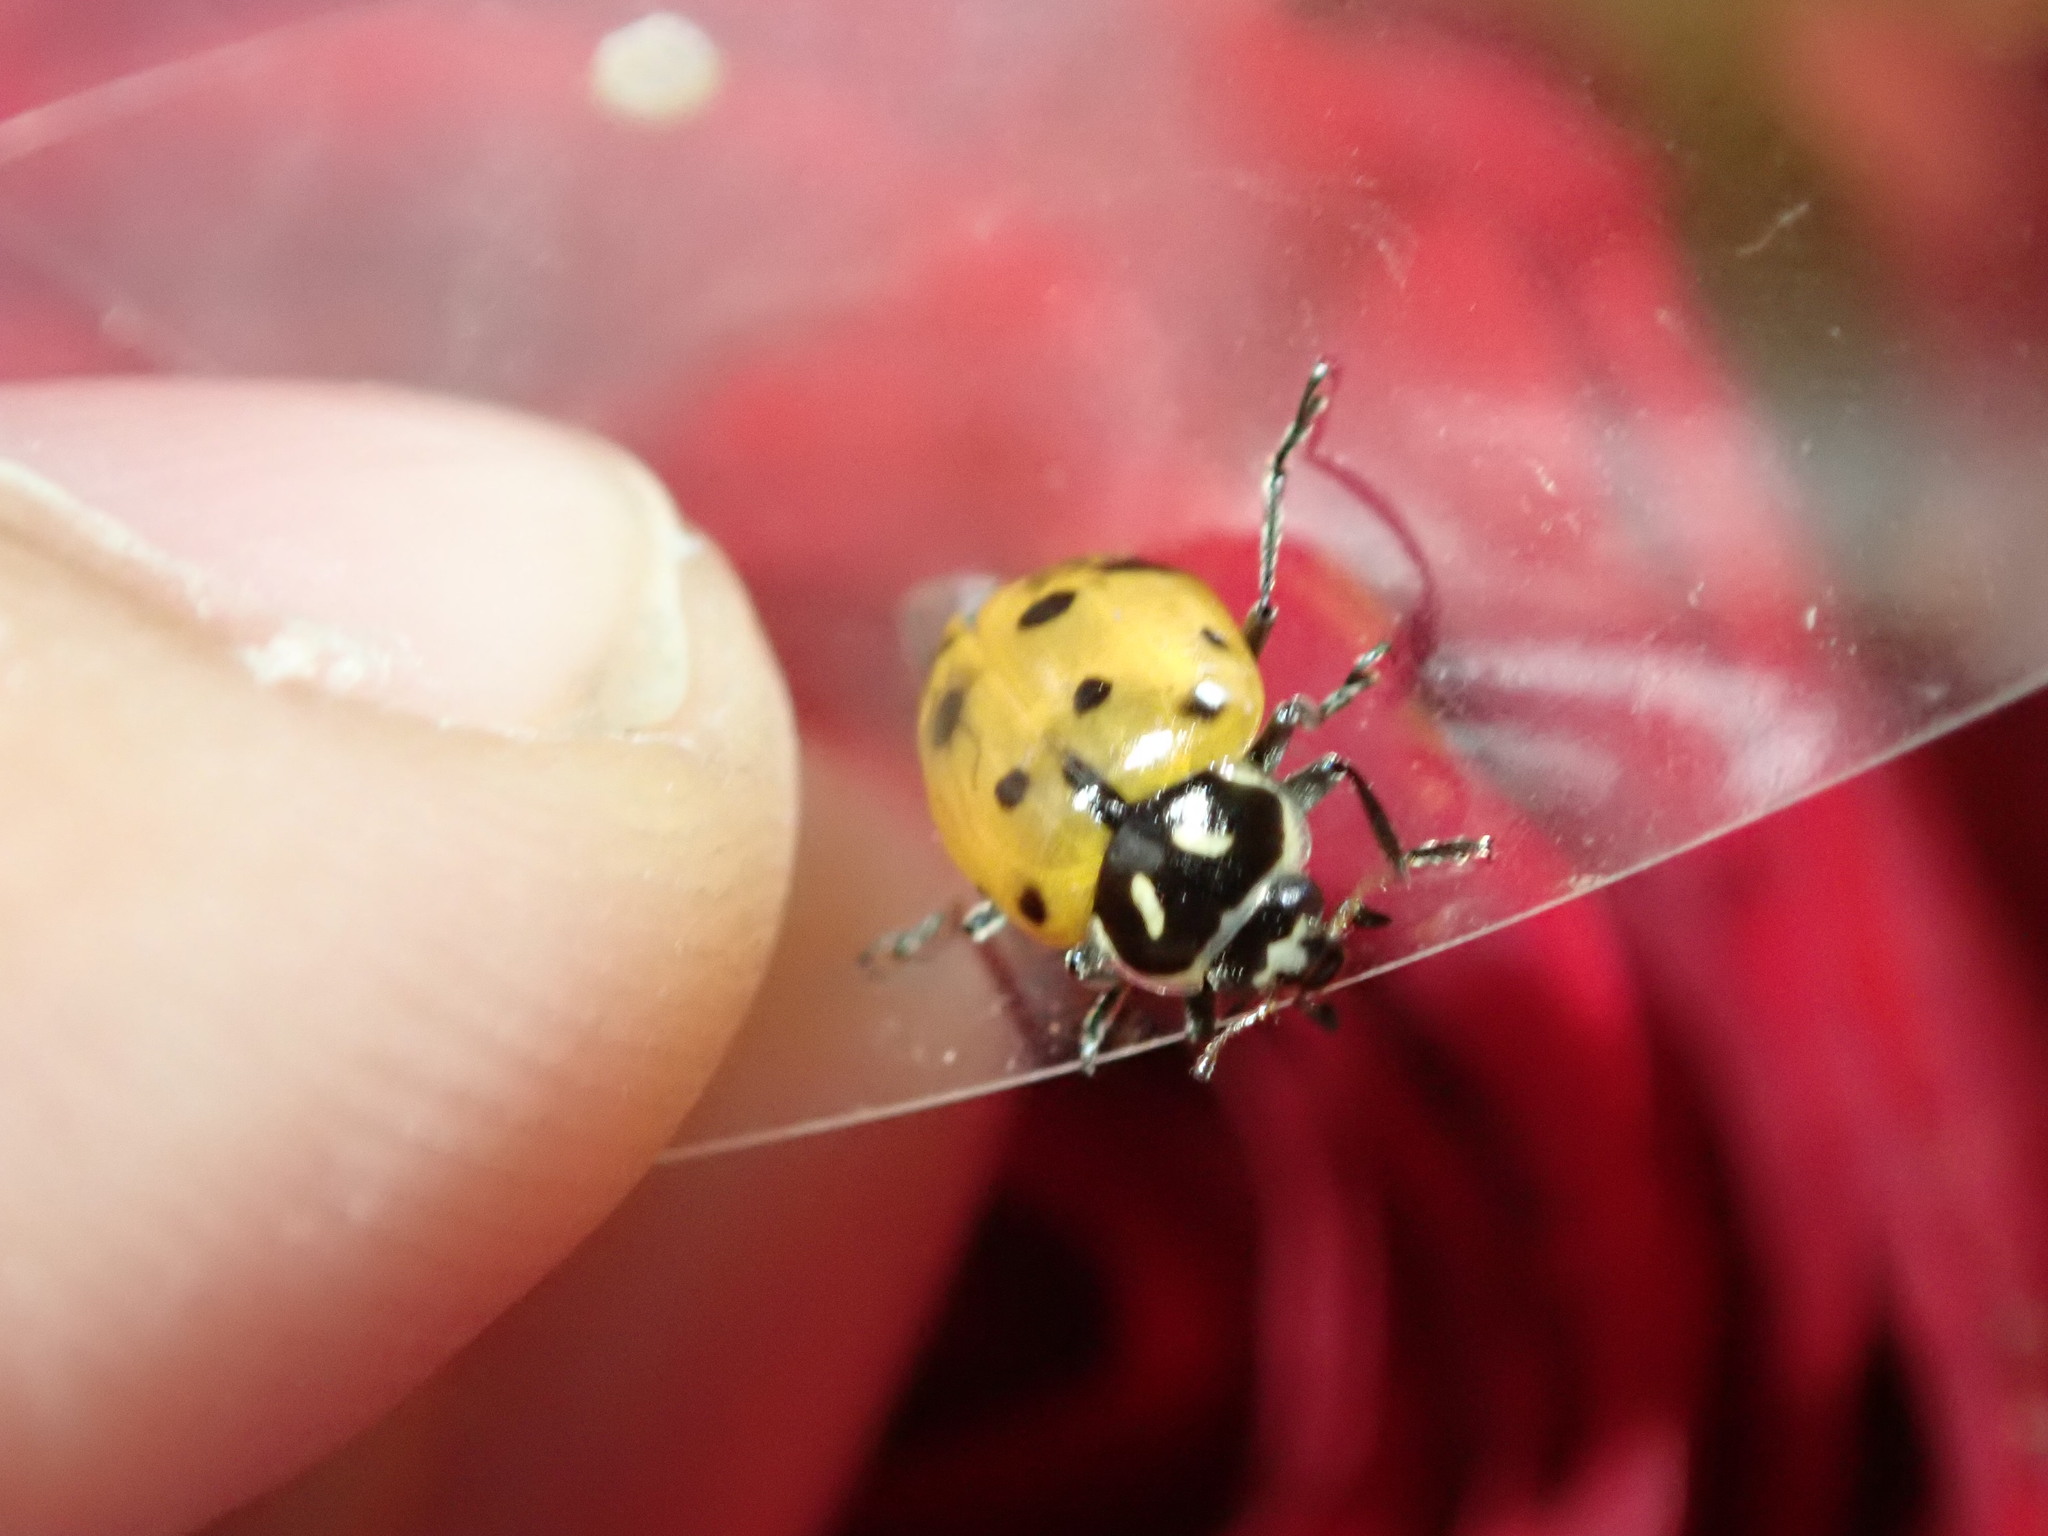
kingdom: Animalia
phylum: Arthropoda
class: Insecta
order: Coleoptera
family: Coccinellidae
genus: Hippodamia
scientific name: Hippodamia convergens
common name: Convergent lady beetle
